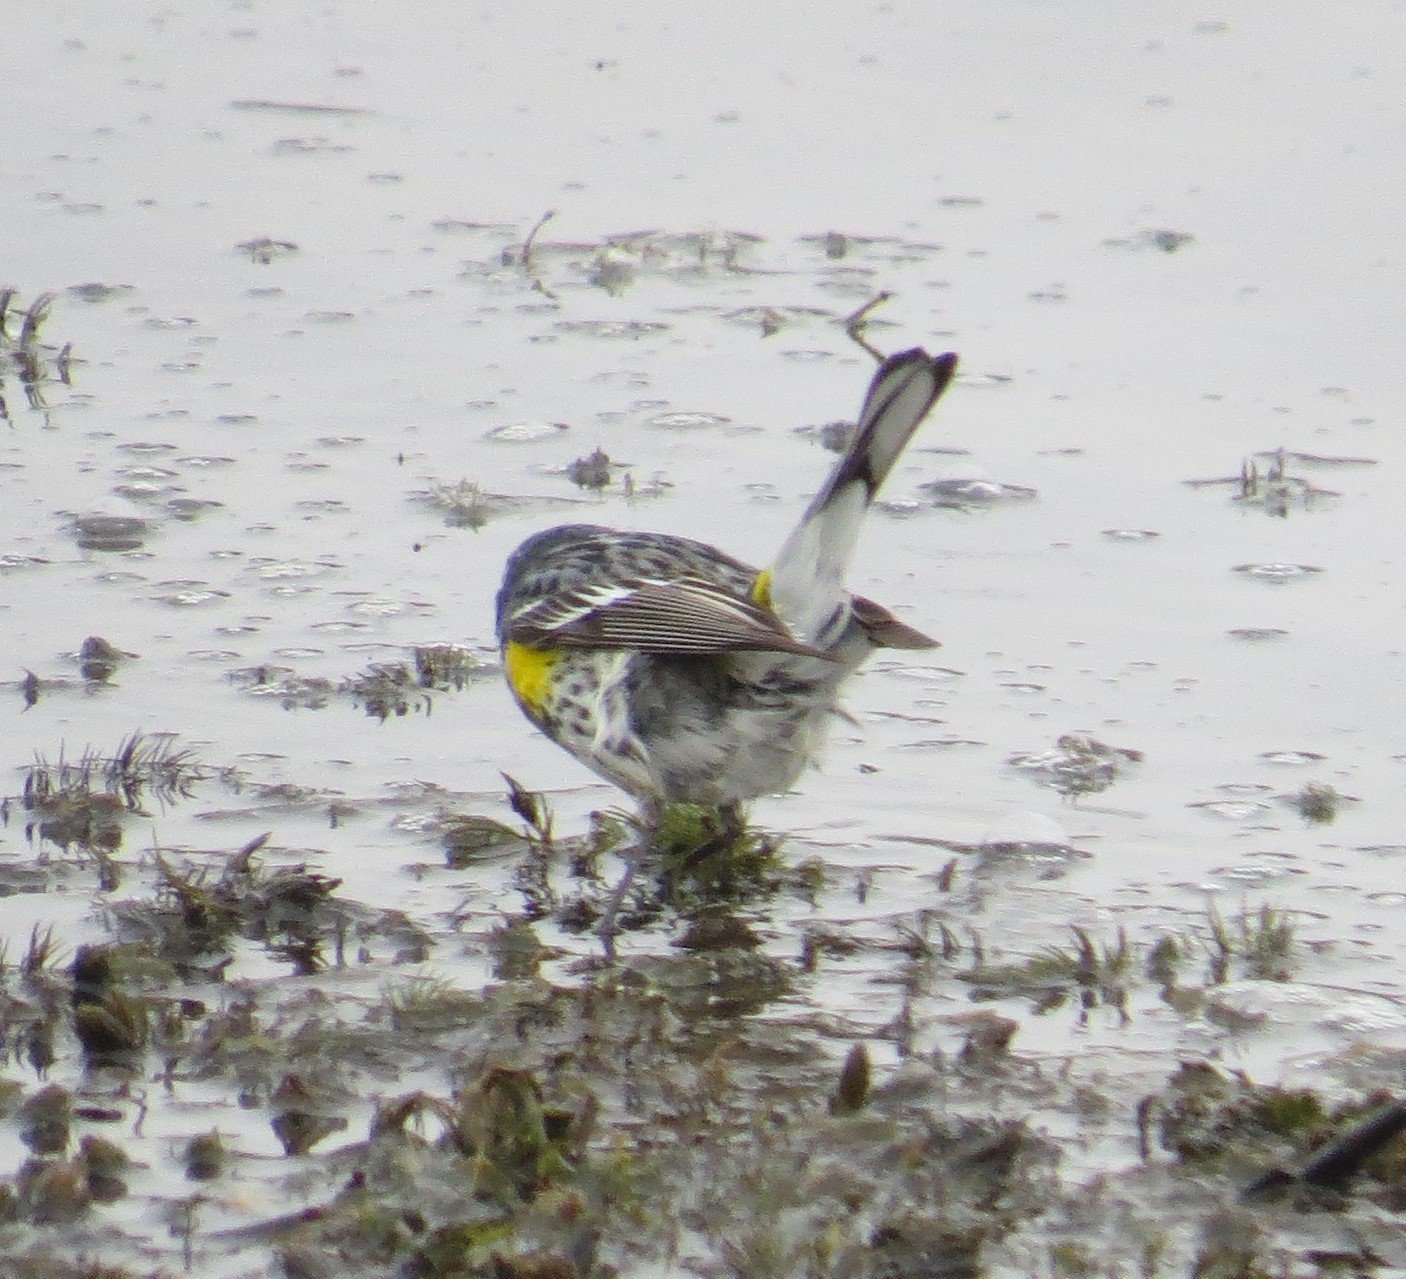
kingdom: Animalia
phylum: Chordata
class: Aves
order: Passeriformes
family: Parulidae
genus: Setophaga
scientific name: Setophaga coronata
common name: Myrtle warbler
